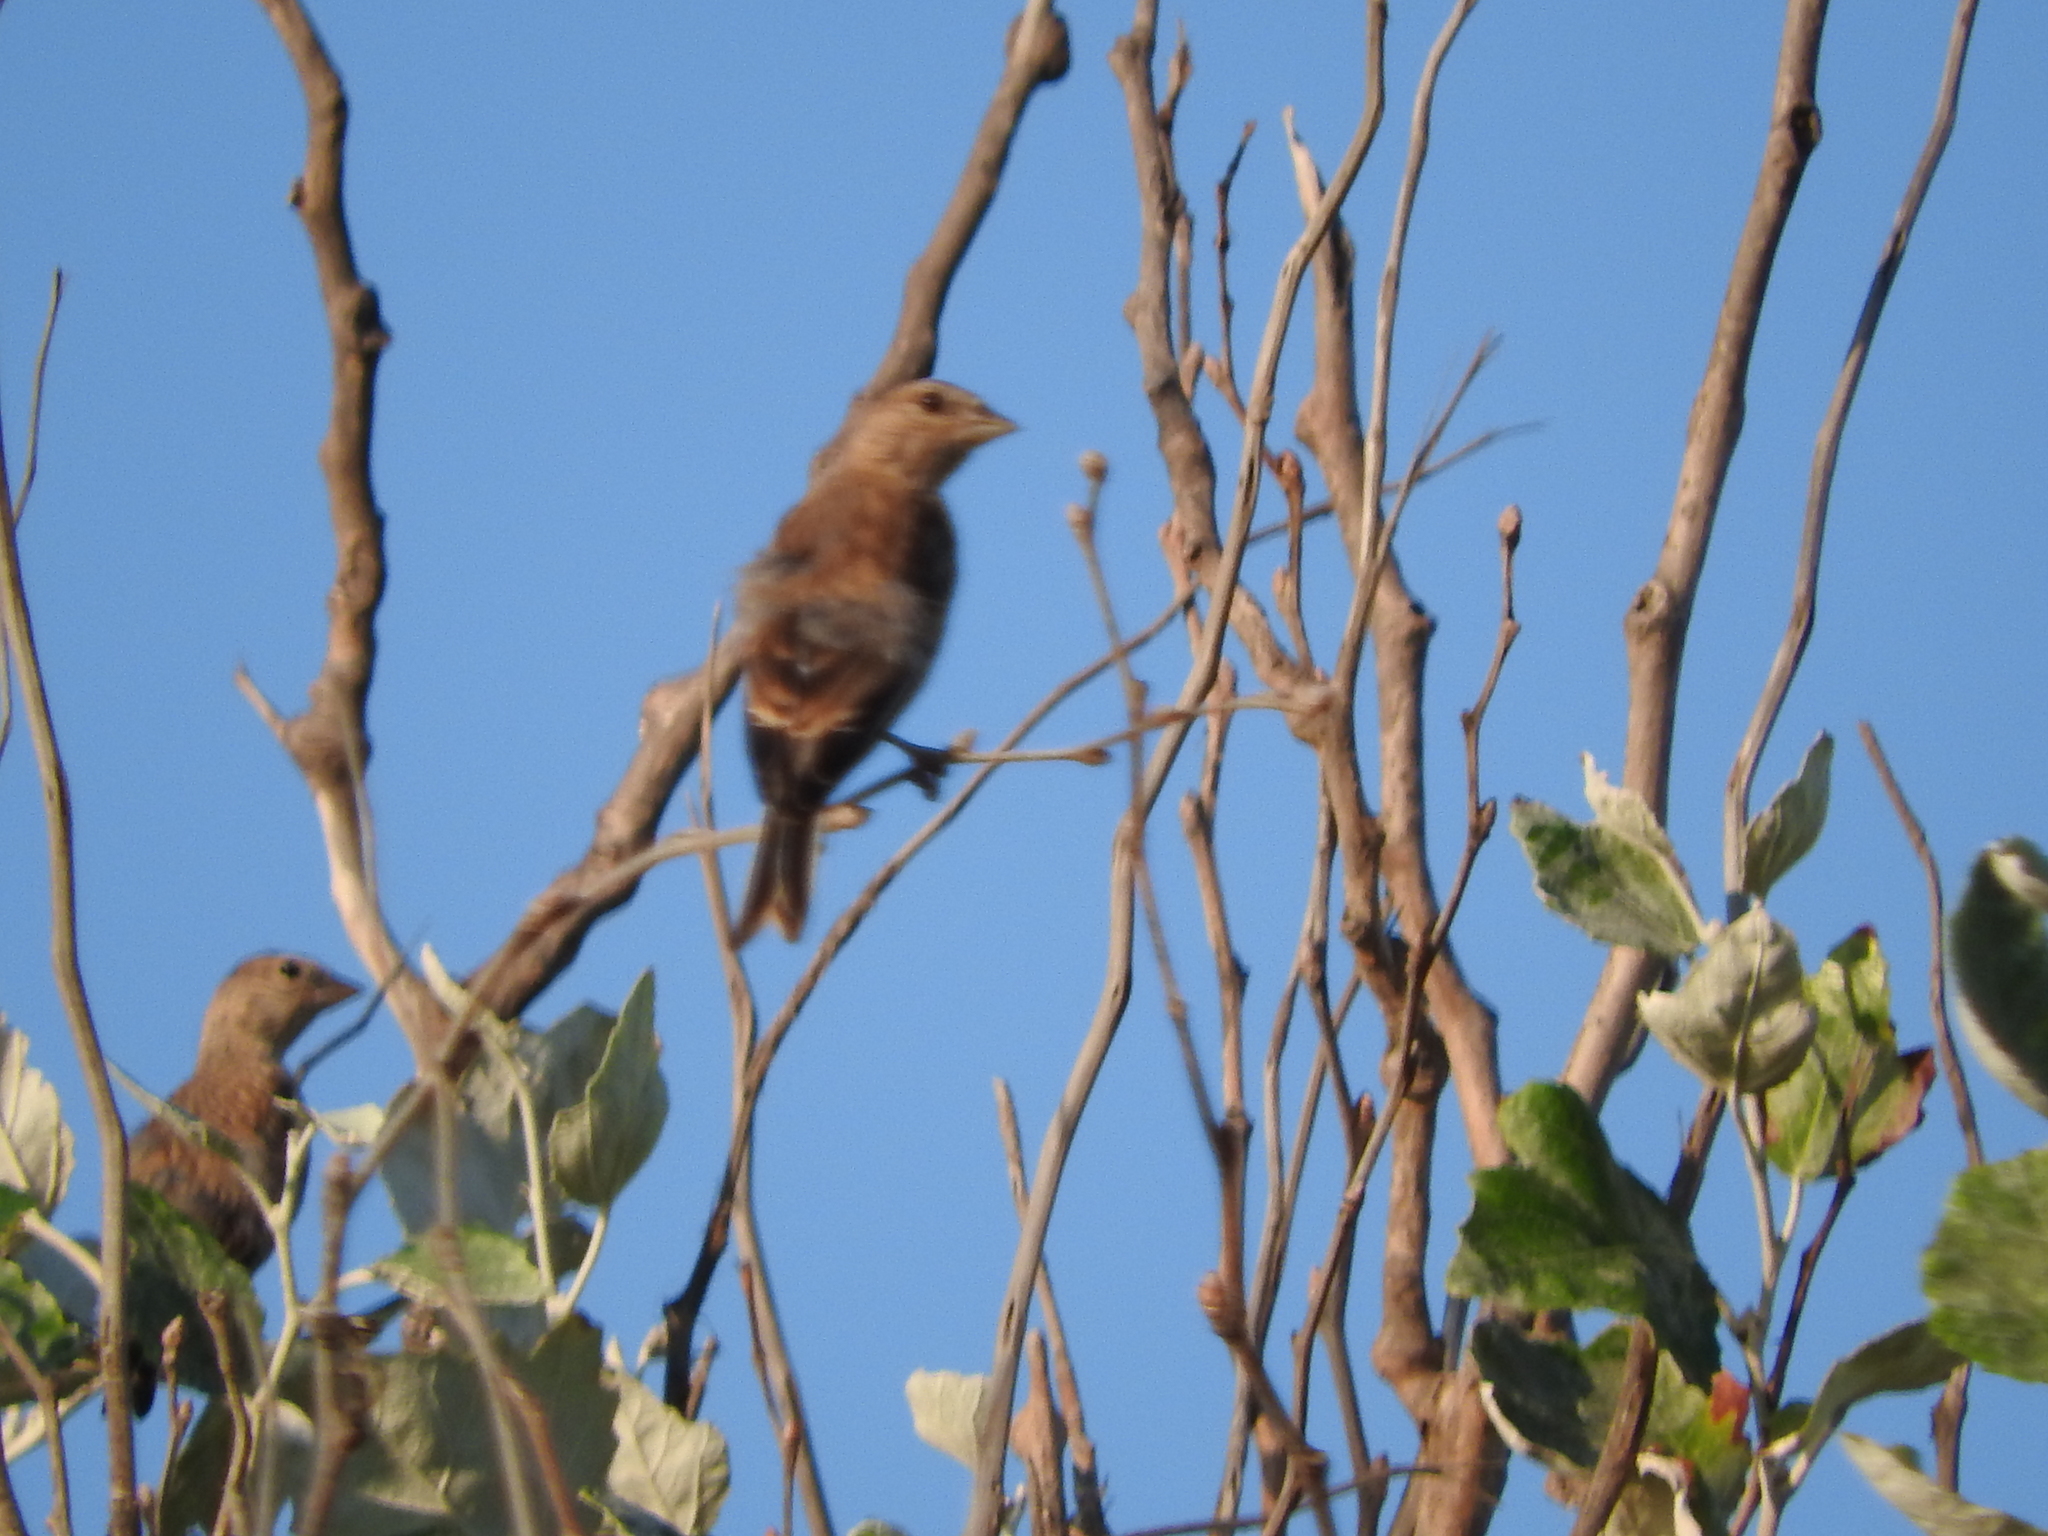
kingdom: Animalia
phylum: Chordata
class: Aves
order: Passeriformes
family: Fringillidae
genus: Linaria
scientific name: Linaria cannabina
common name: Common linnet
